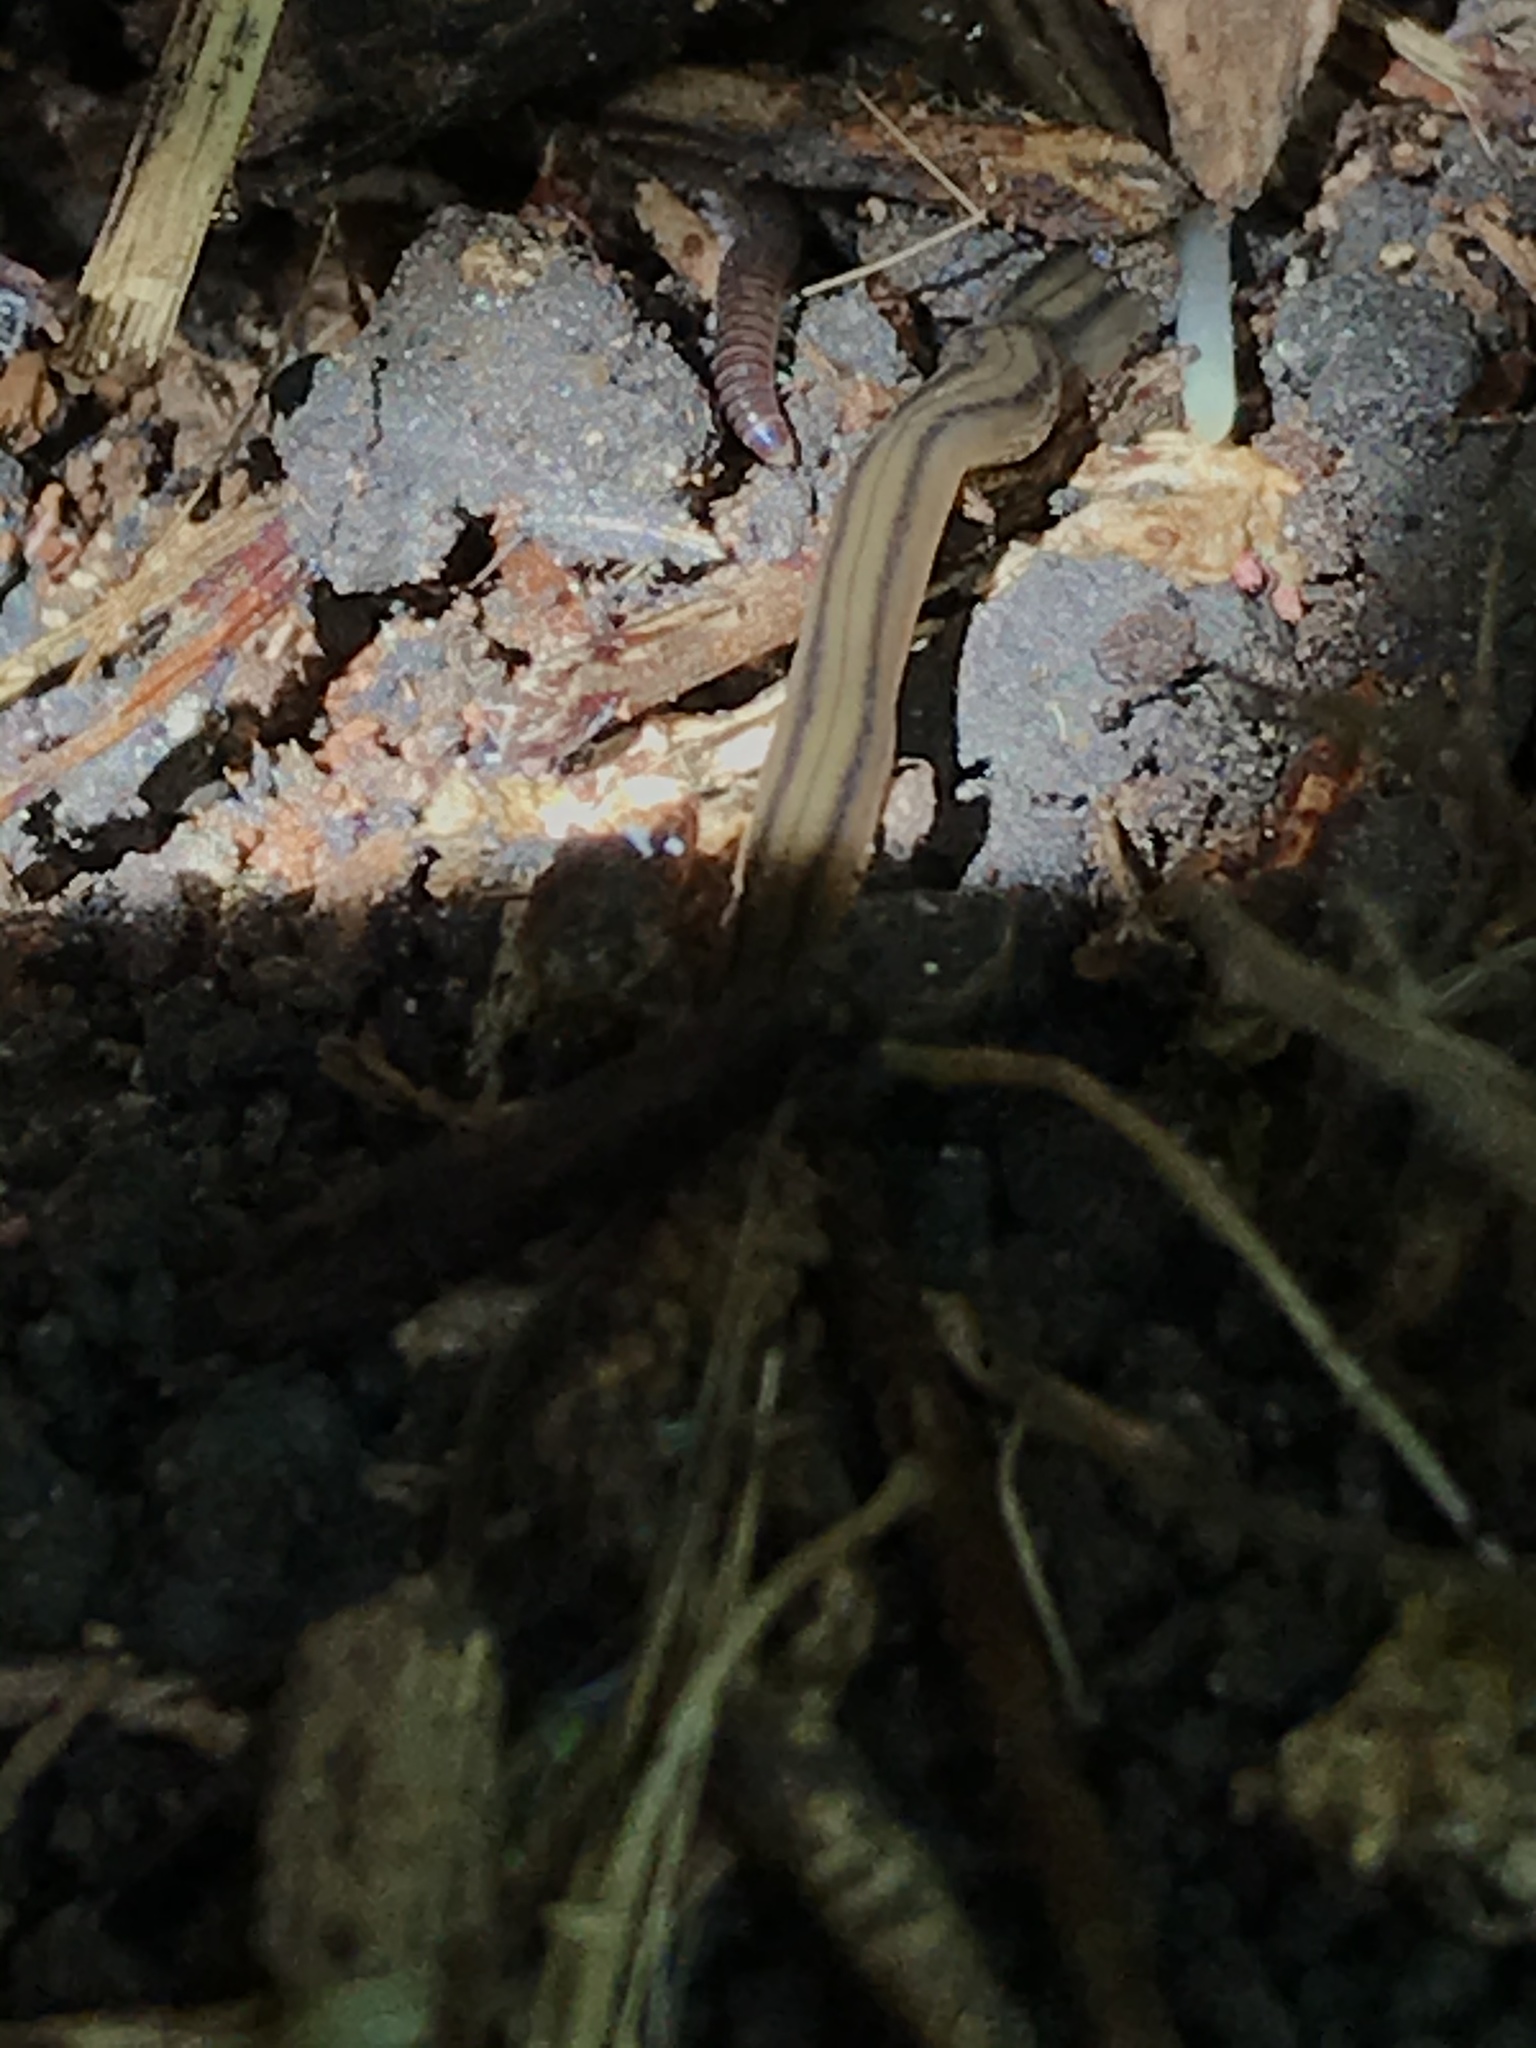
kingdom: Animalia
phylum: Platyhelminthes
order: Tricladida
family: Geoplanidae
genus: Bipalium
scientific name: Bipalium kewense
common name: Hammerhead flatworm
